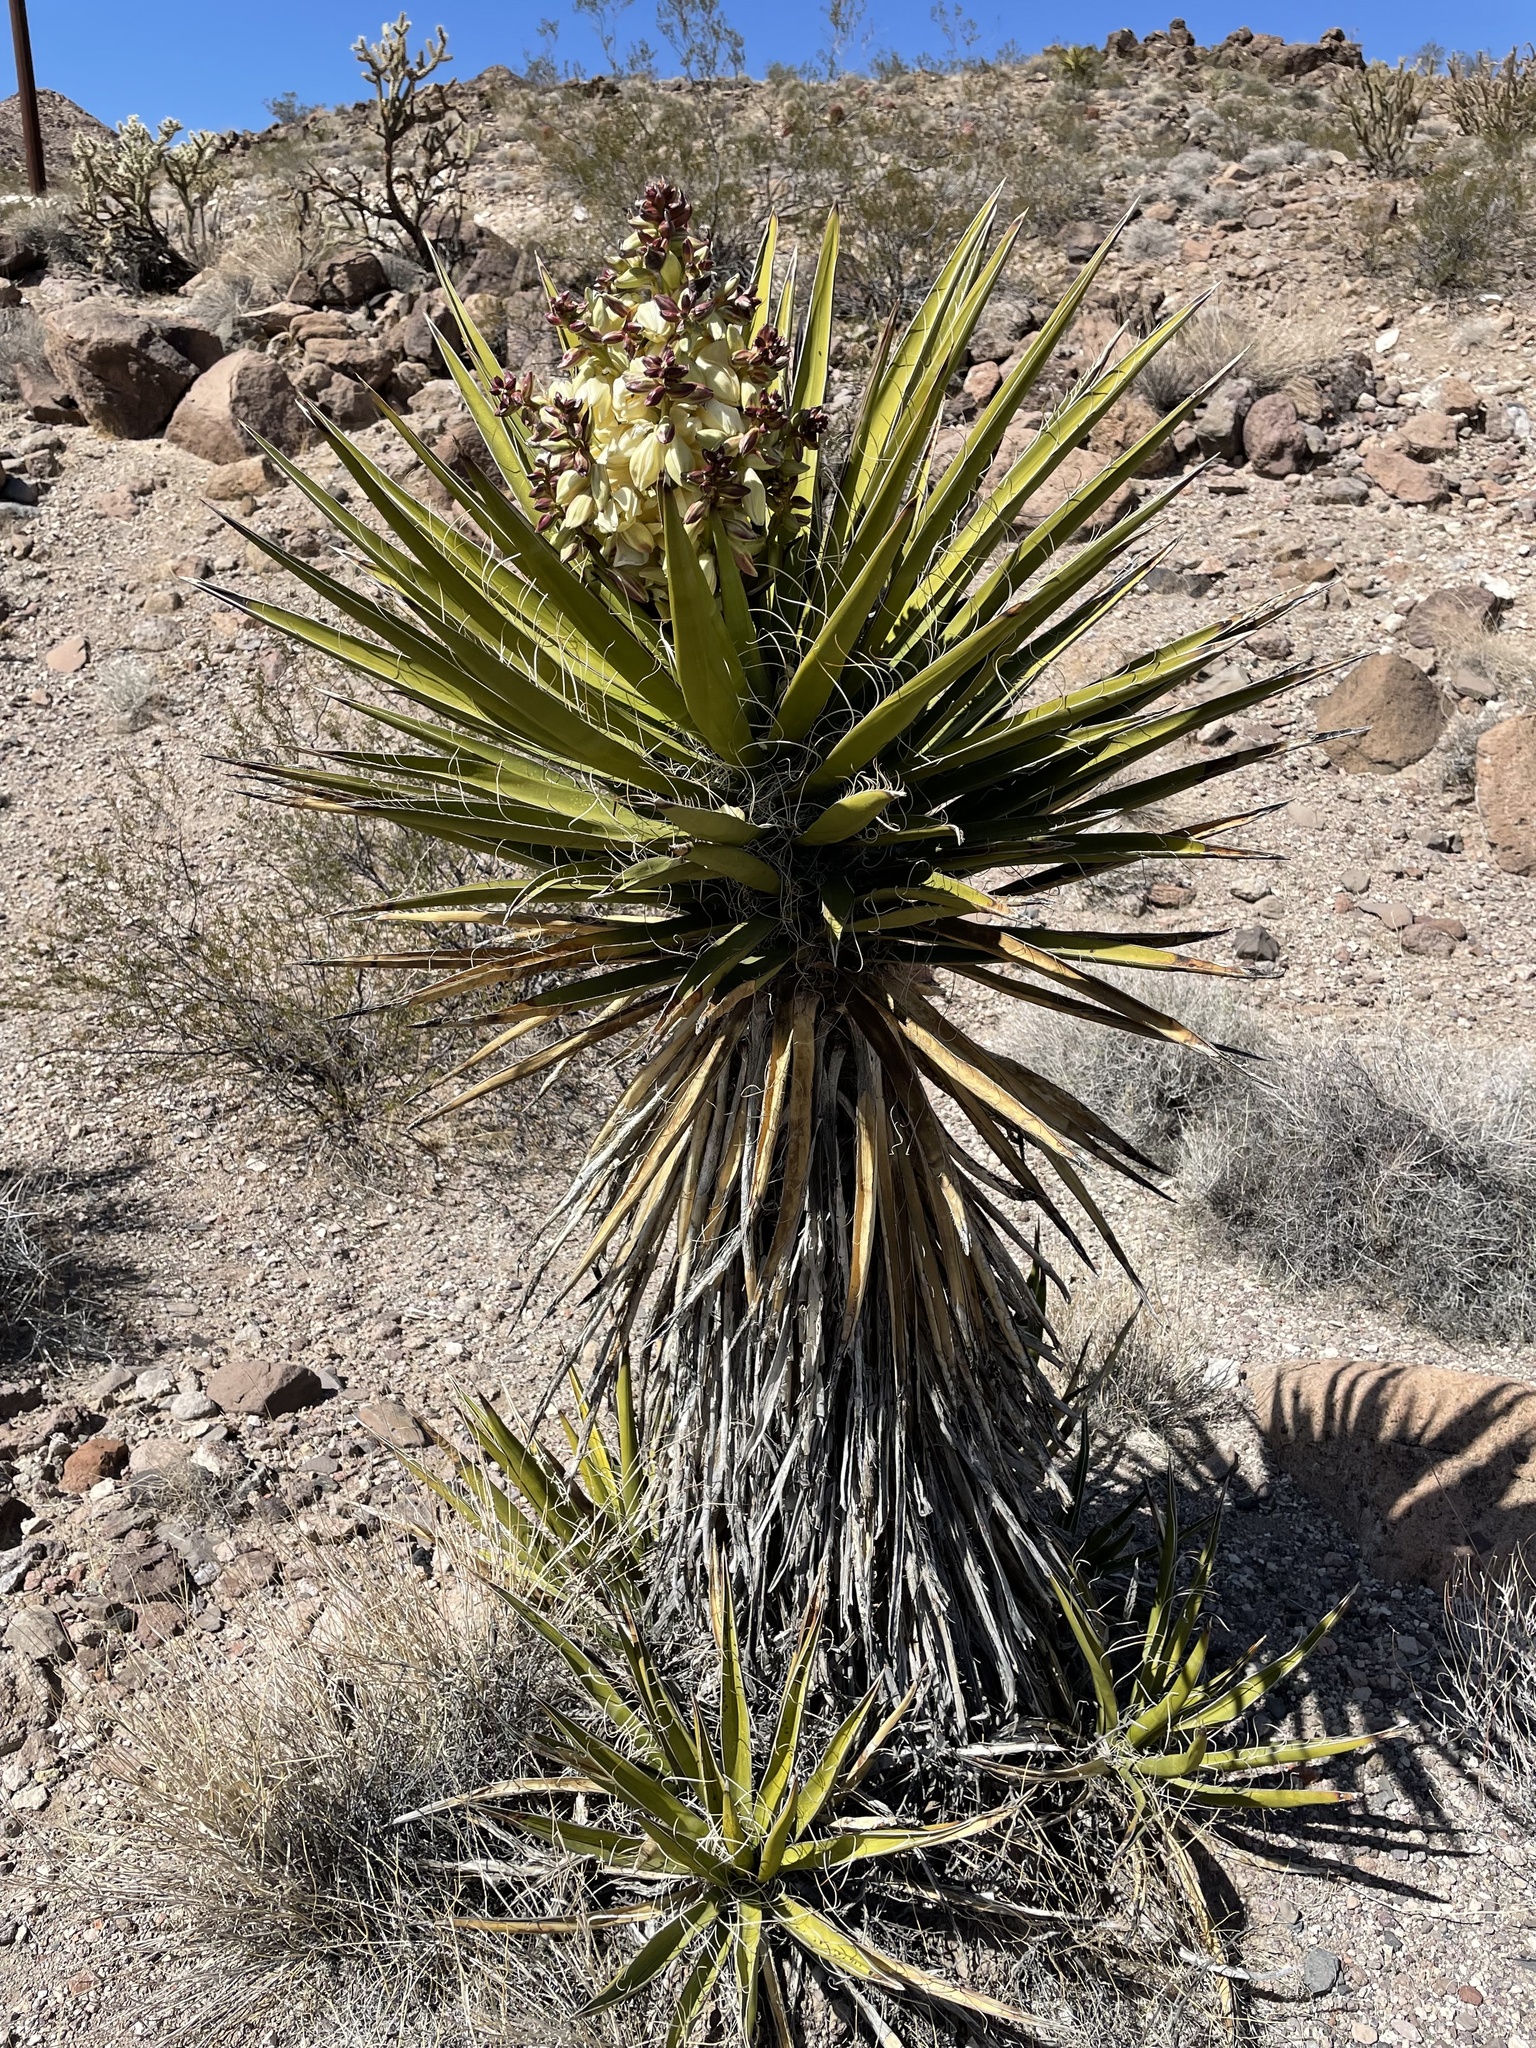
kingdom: Plantae
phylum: Tracheophyta
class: Liliopsida
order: Asparagales
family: Asparagaceae
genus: Yucca
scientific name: Yucca schidigera
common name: Mojave yucca
